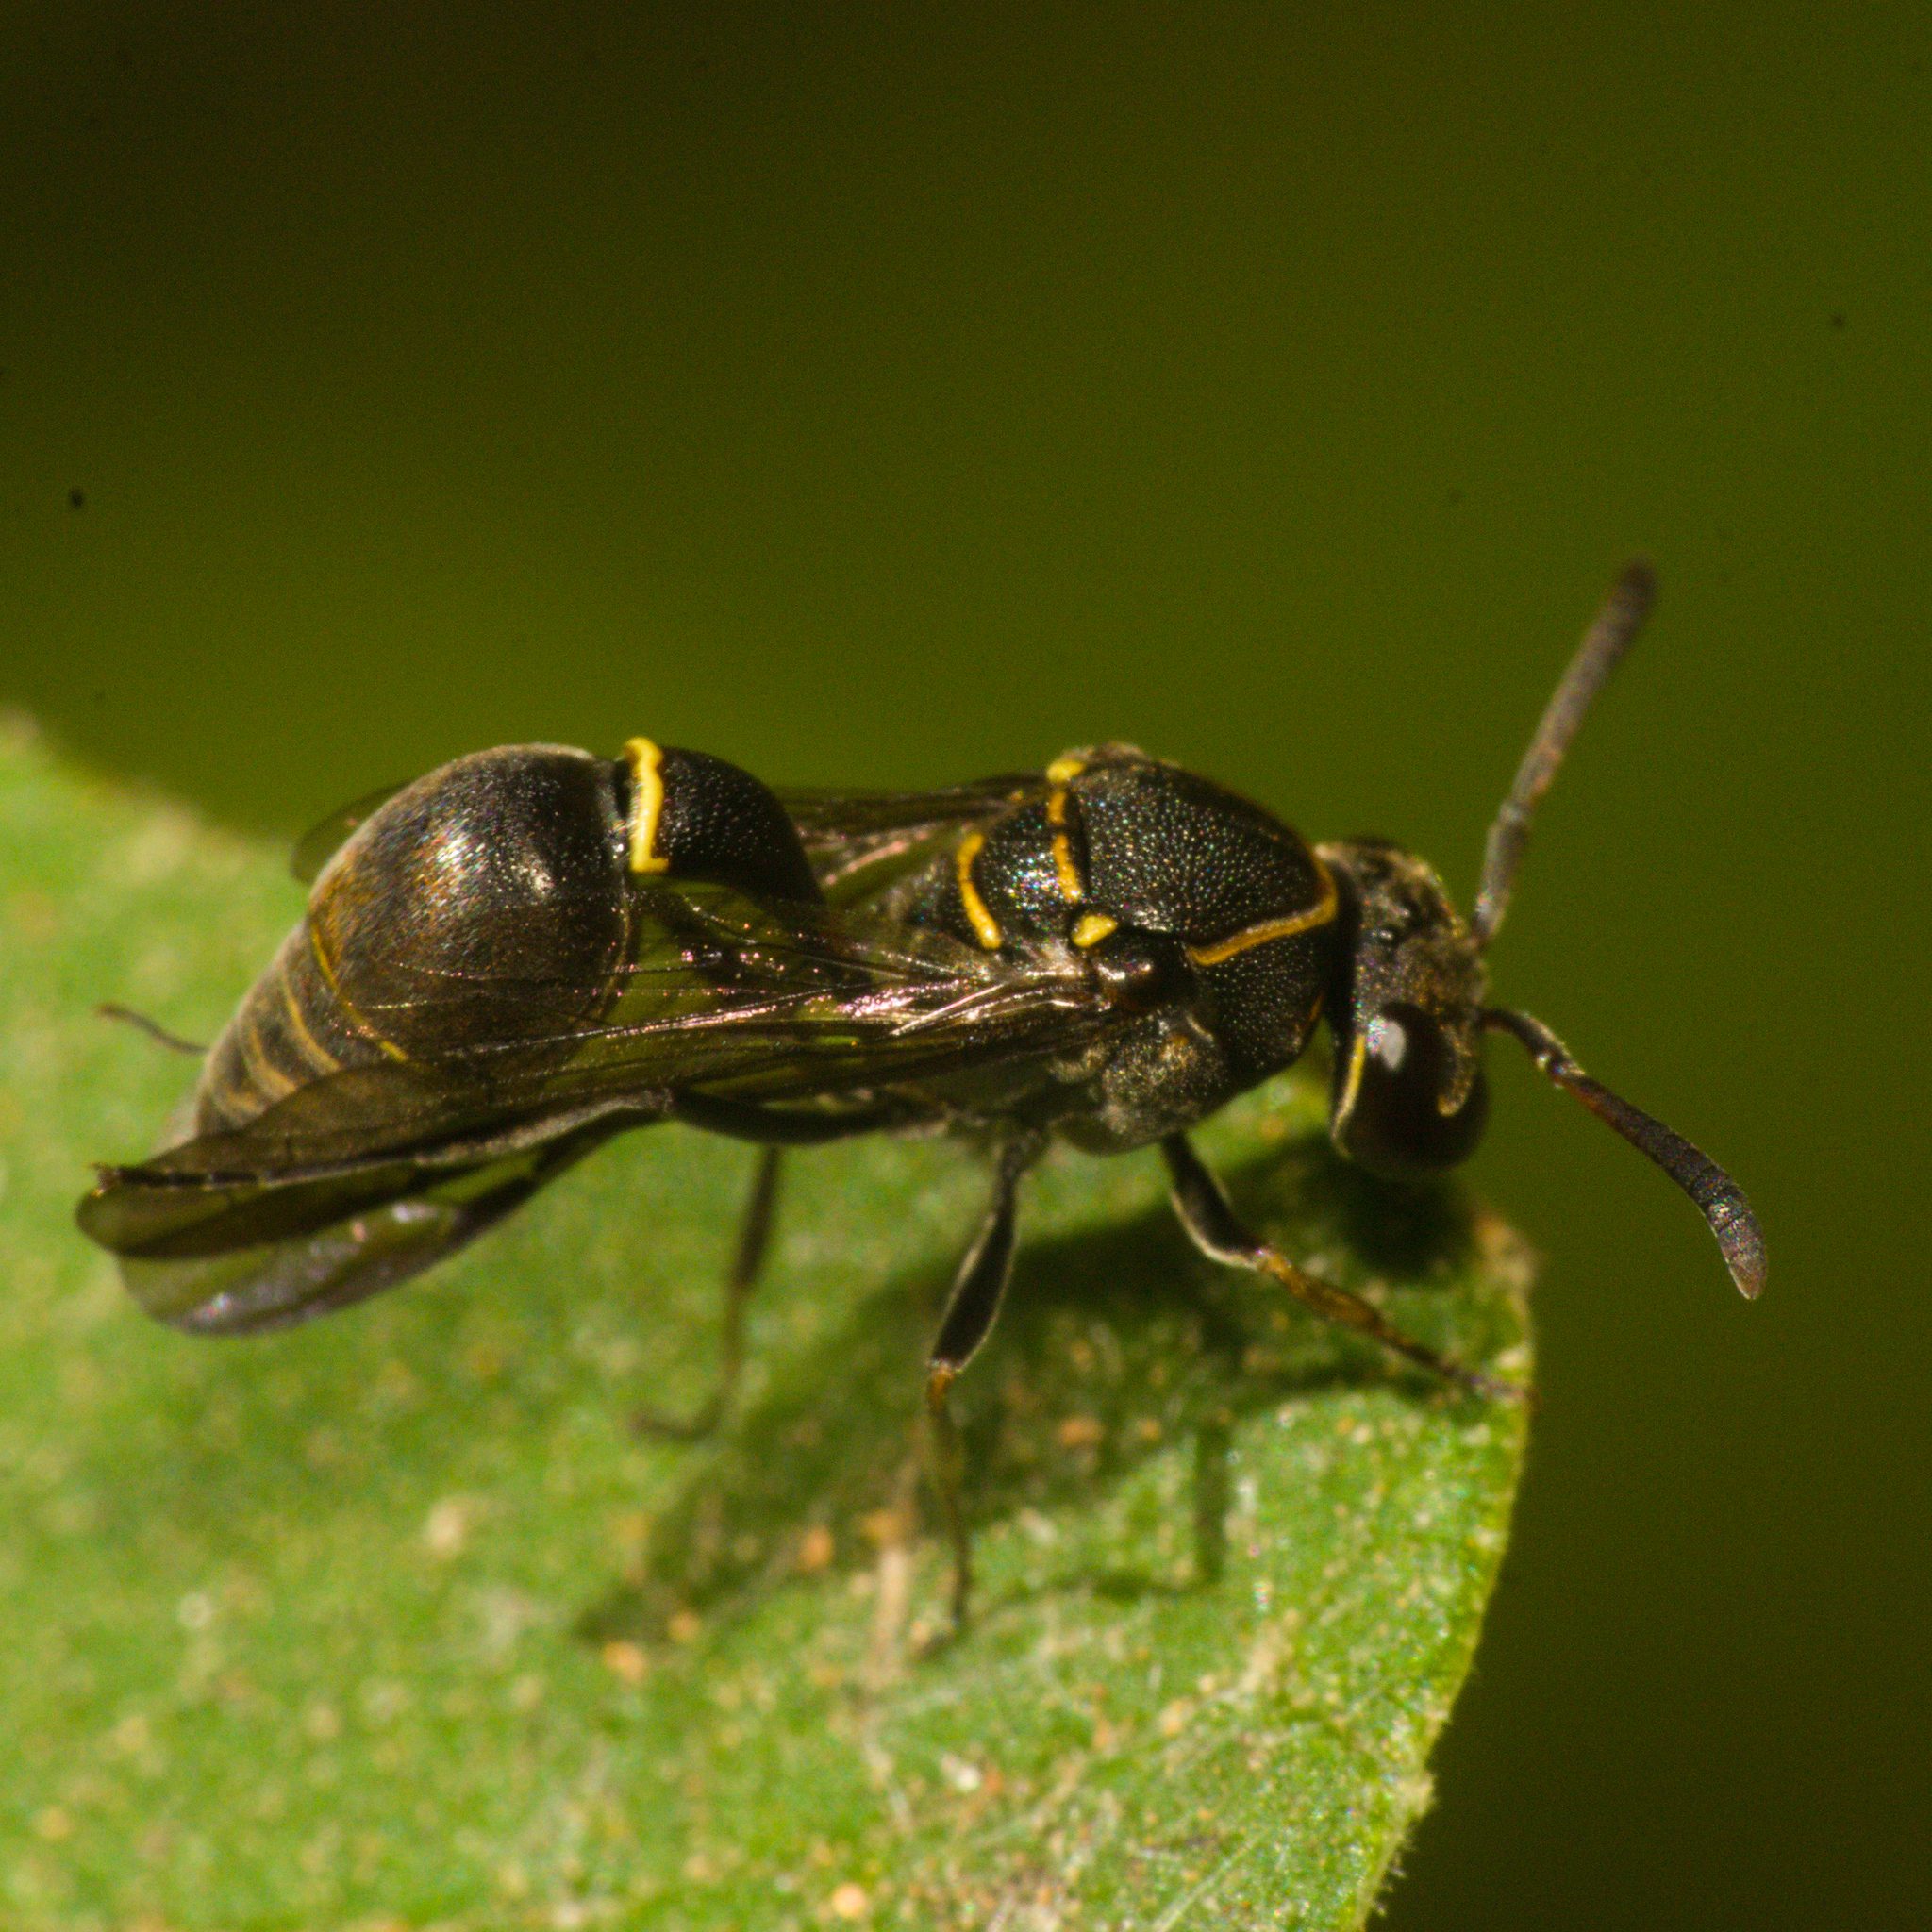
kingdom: Animalia
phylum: Arthropoda
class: Insecta
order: Hymenoptera
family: Eumenidae
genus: Pachymenes
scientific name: Pachymenes
